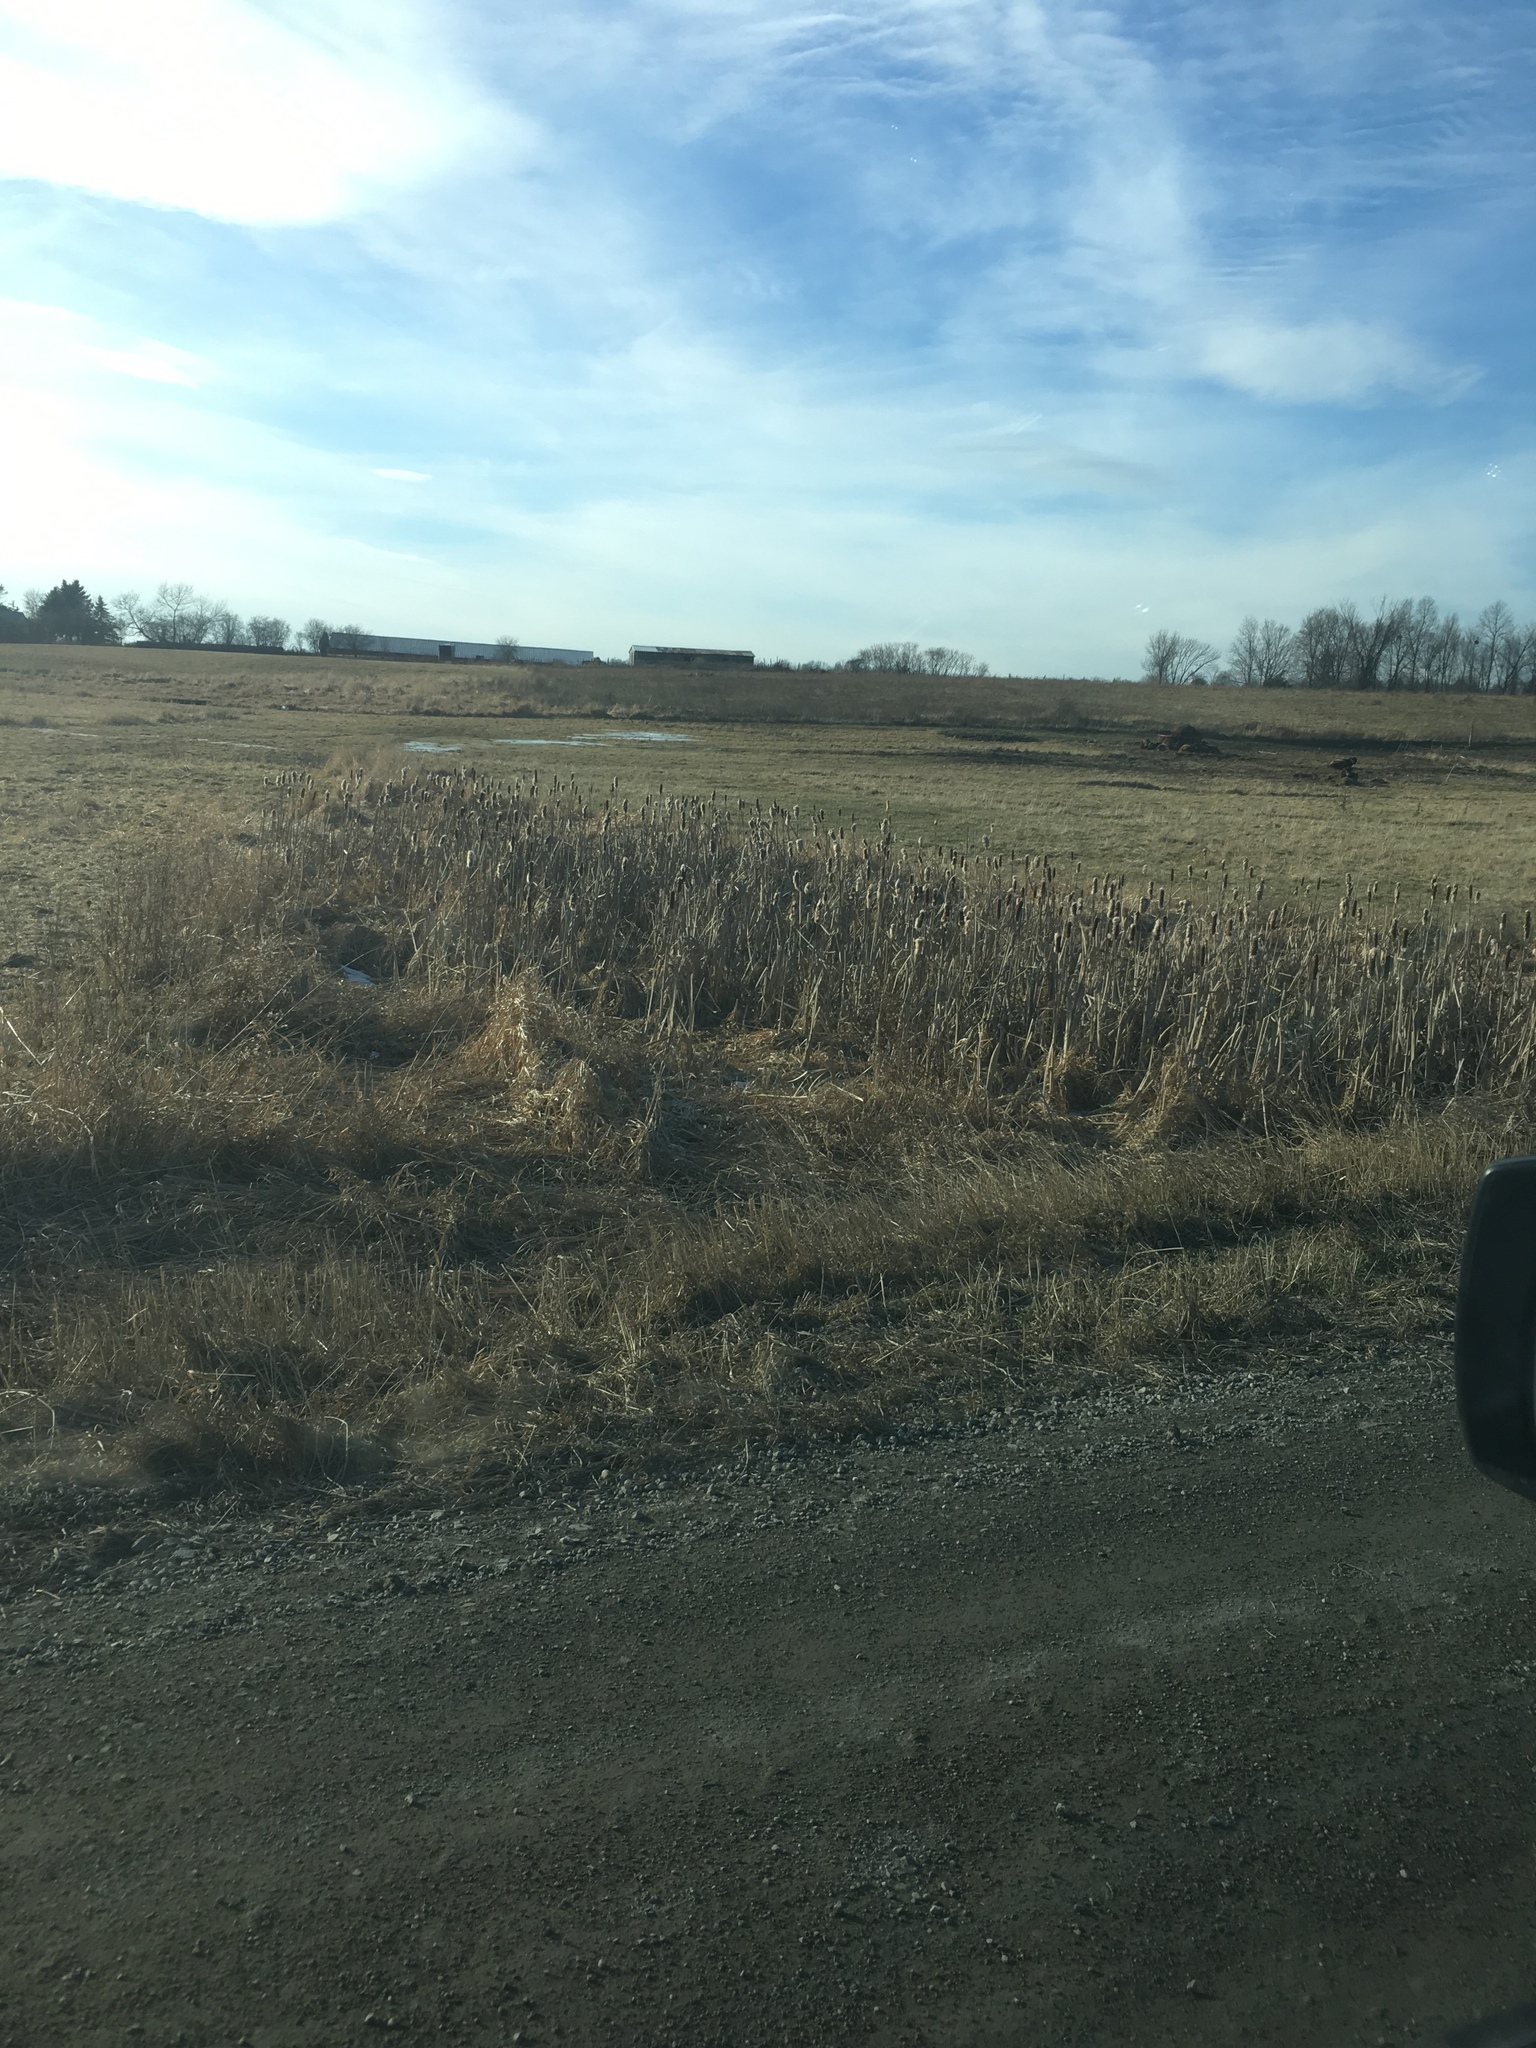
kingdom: Plantae
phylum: Tracheophyta
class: Liliopsida
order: Poales
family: Typhaceae
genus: Typha
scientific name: Typha
